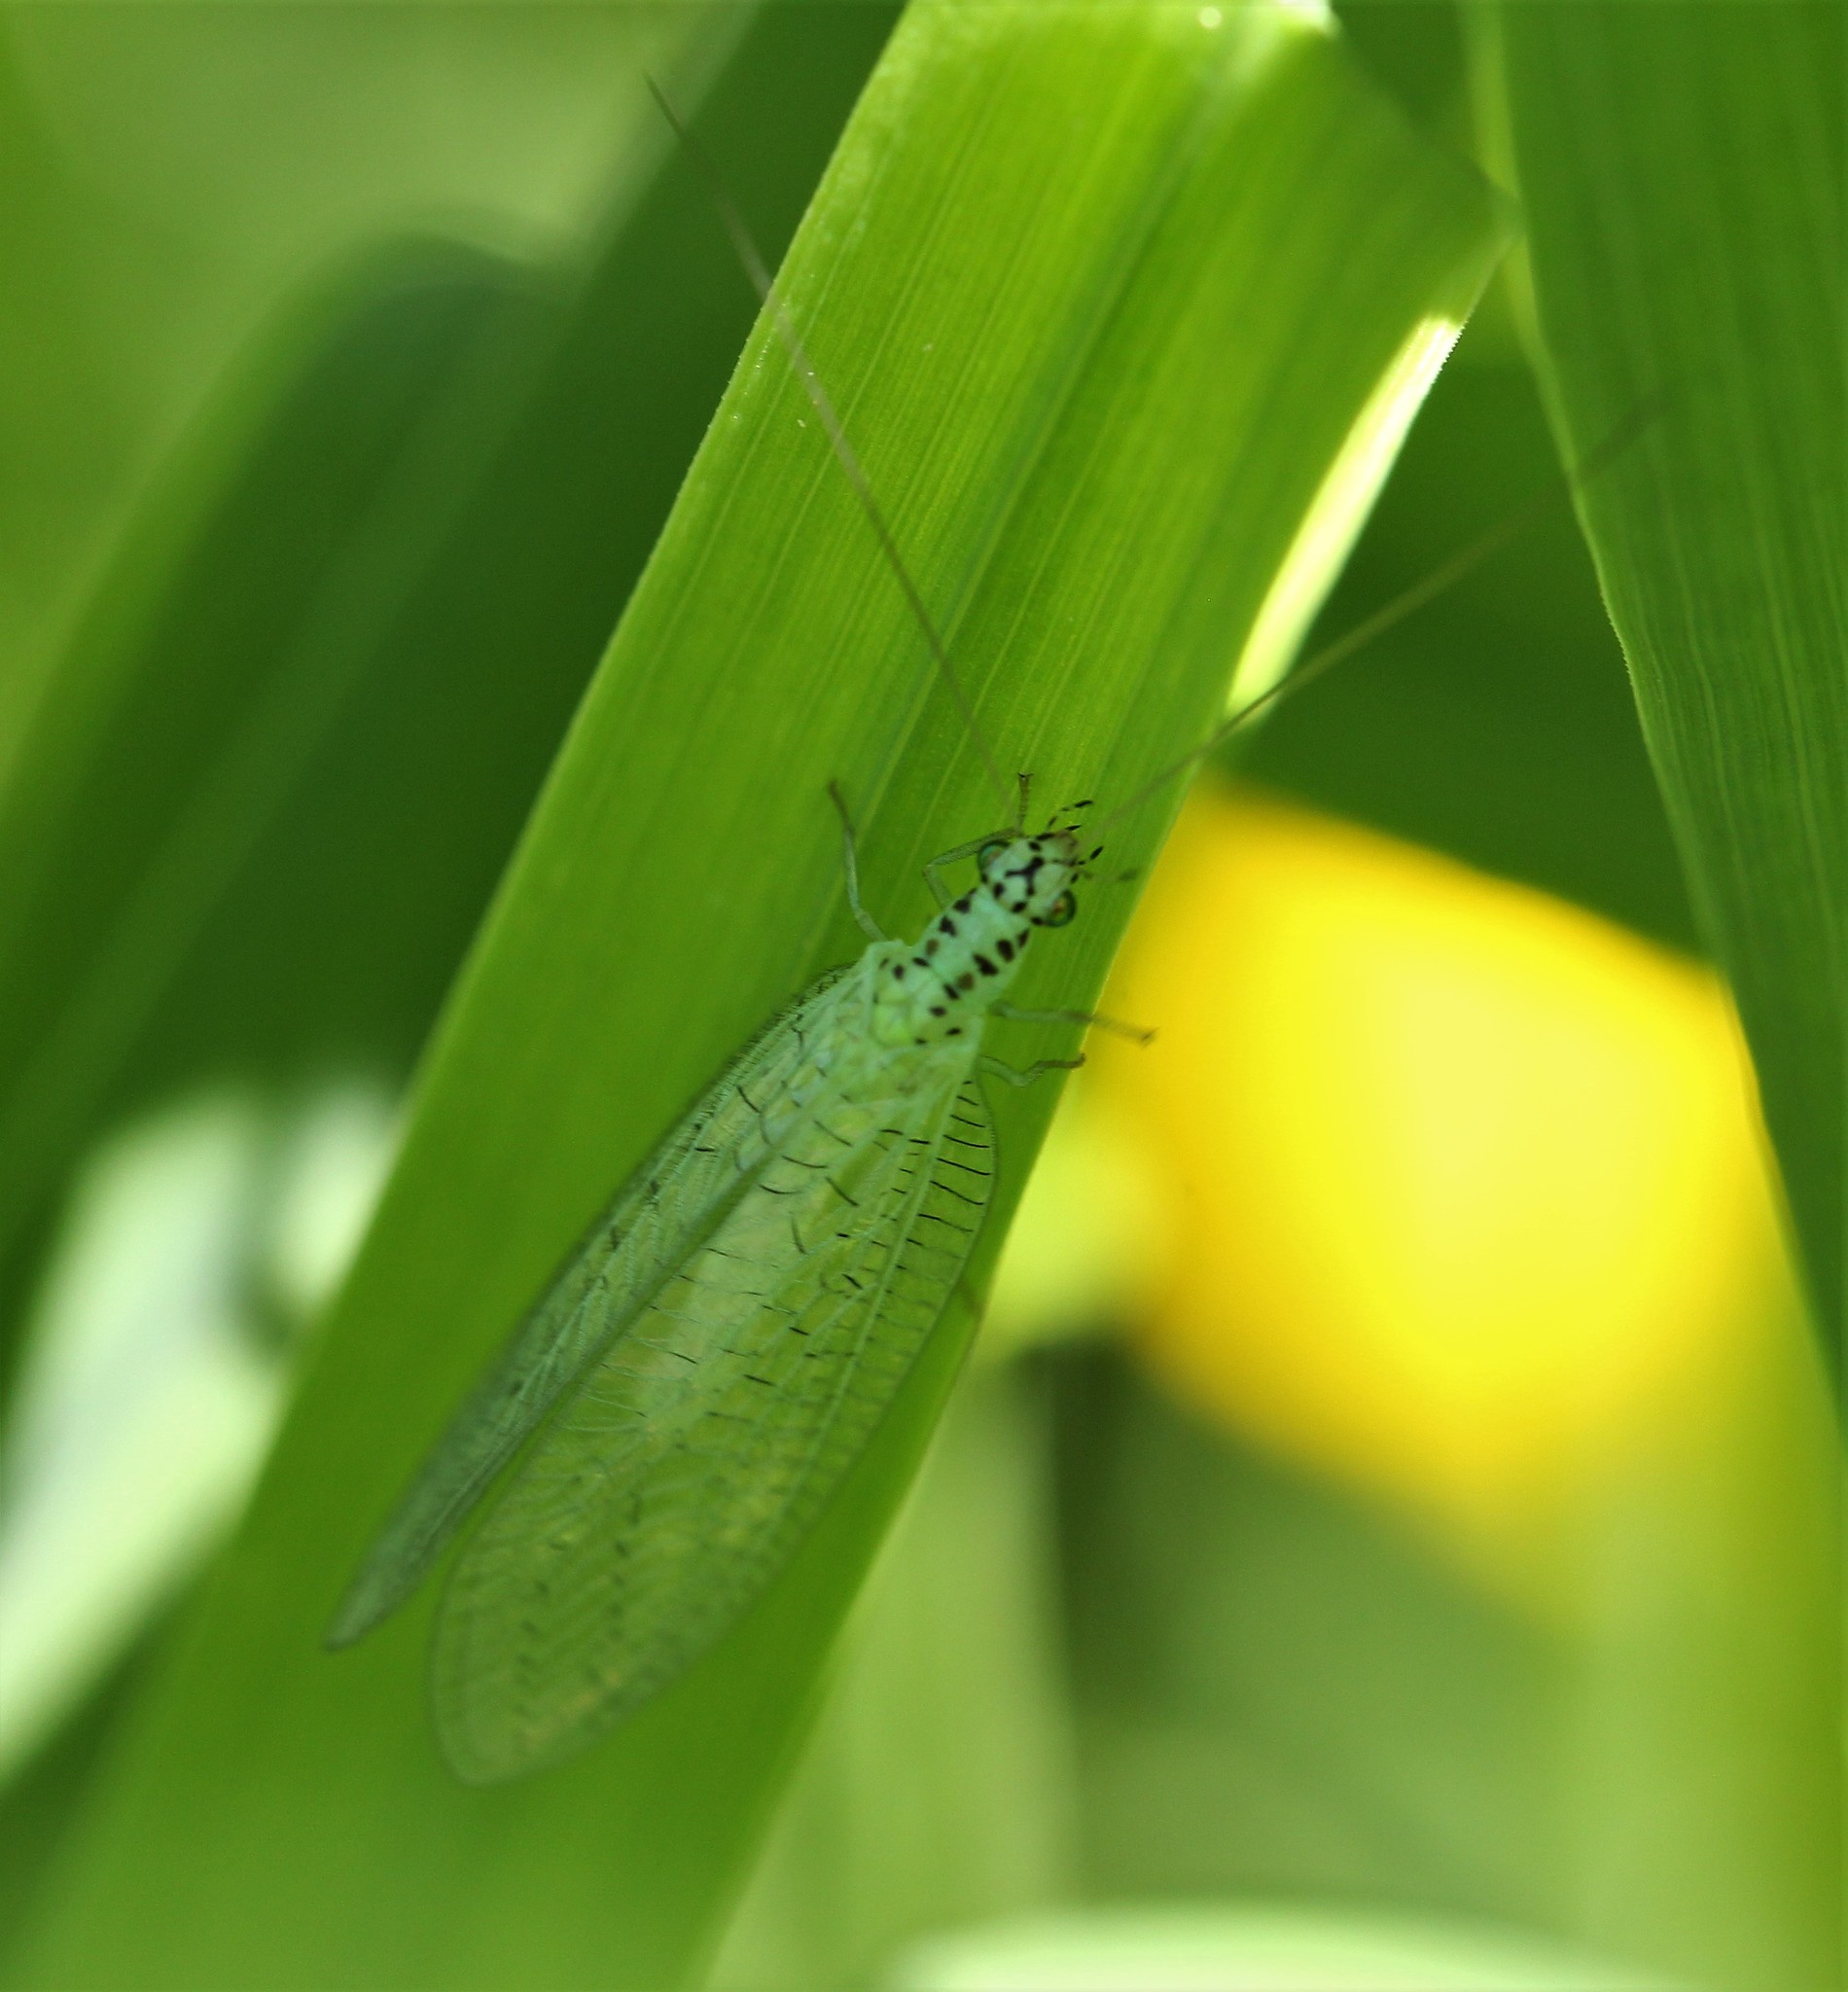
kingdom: Animalia
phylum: Arthropoda
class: Insecta
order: Neuroptera
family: Chrysopidae
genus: Chrysopa
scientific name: Chrysopa chi
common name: X-marked green lacewing
